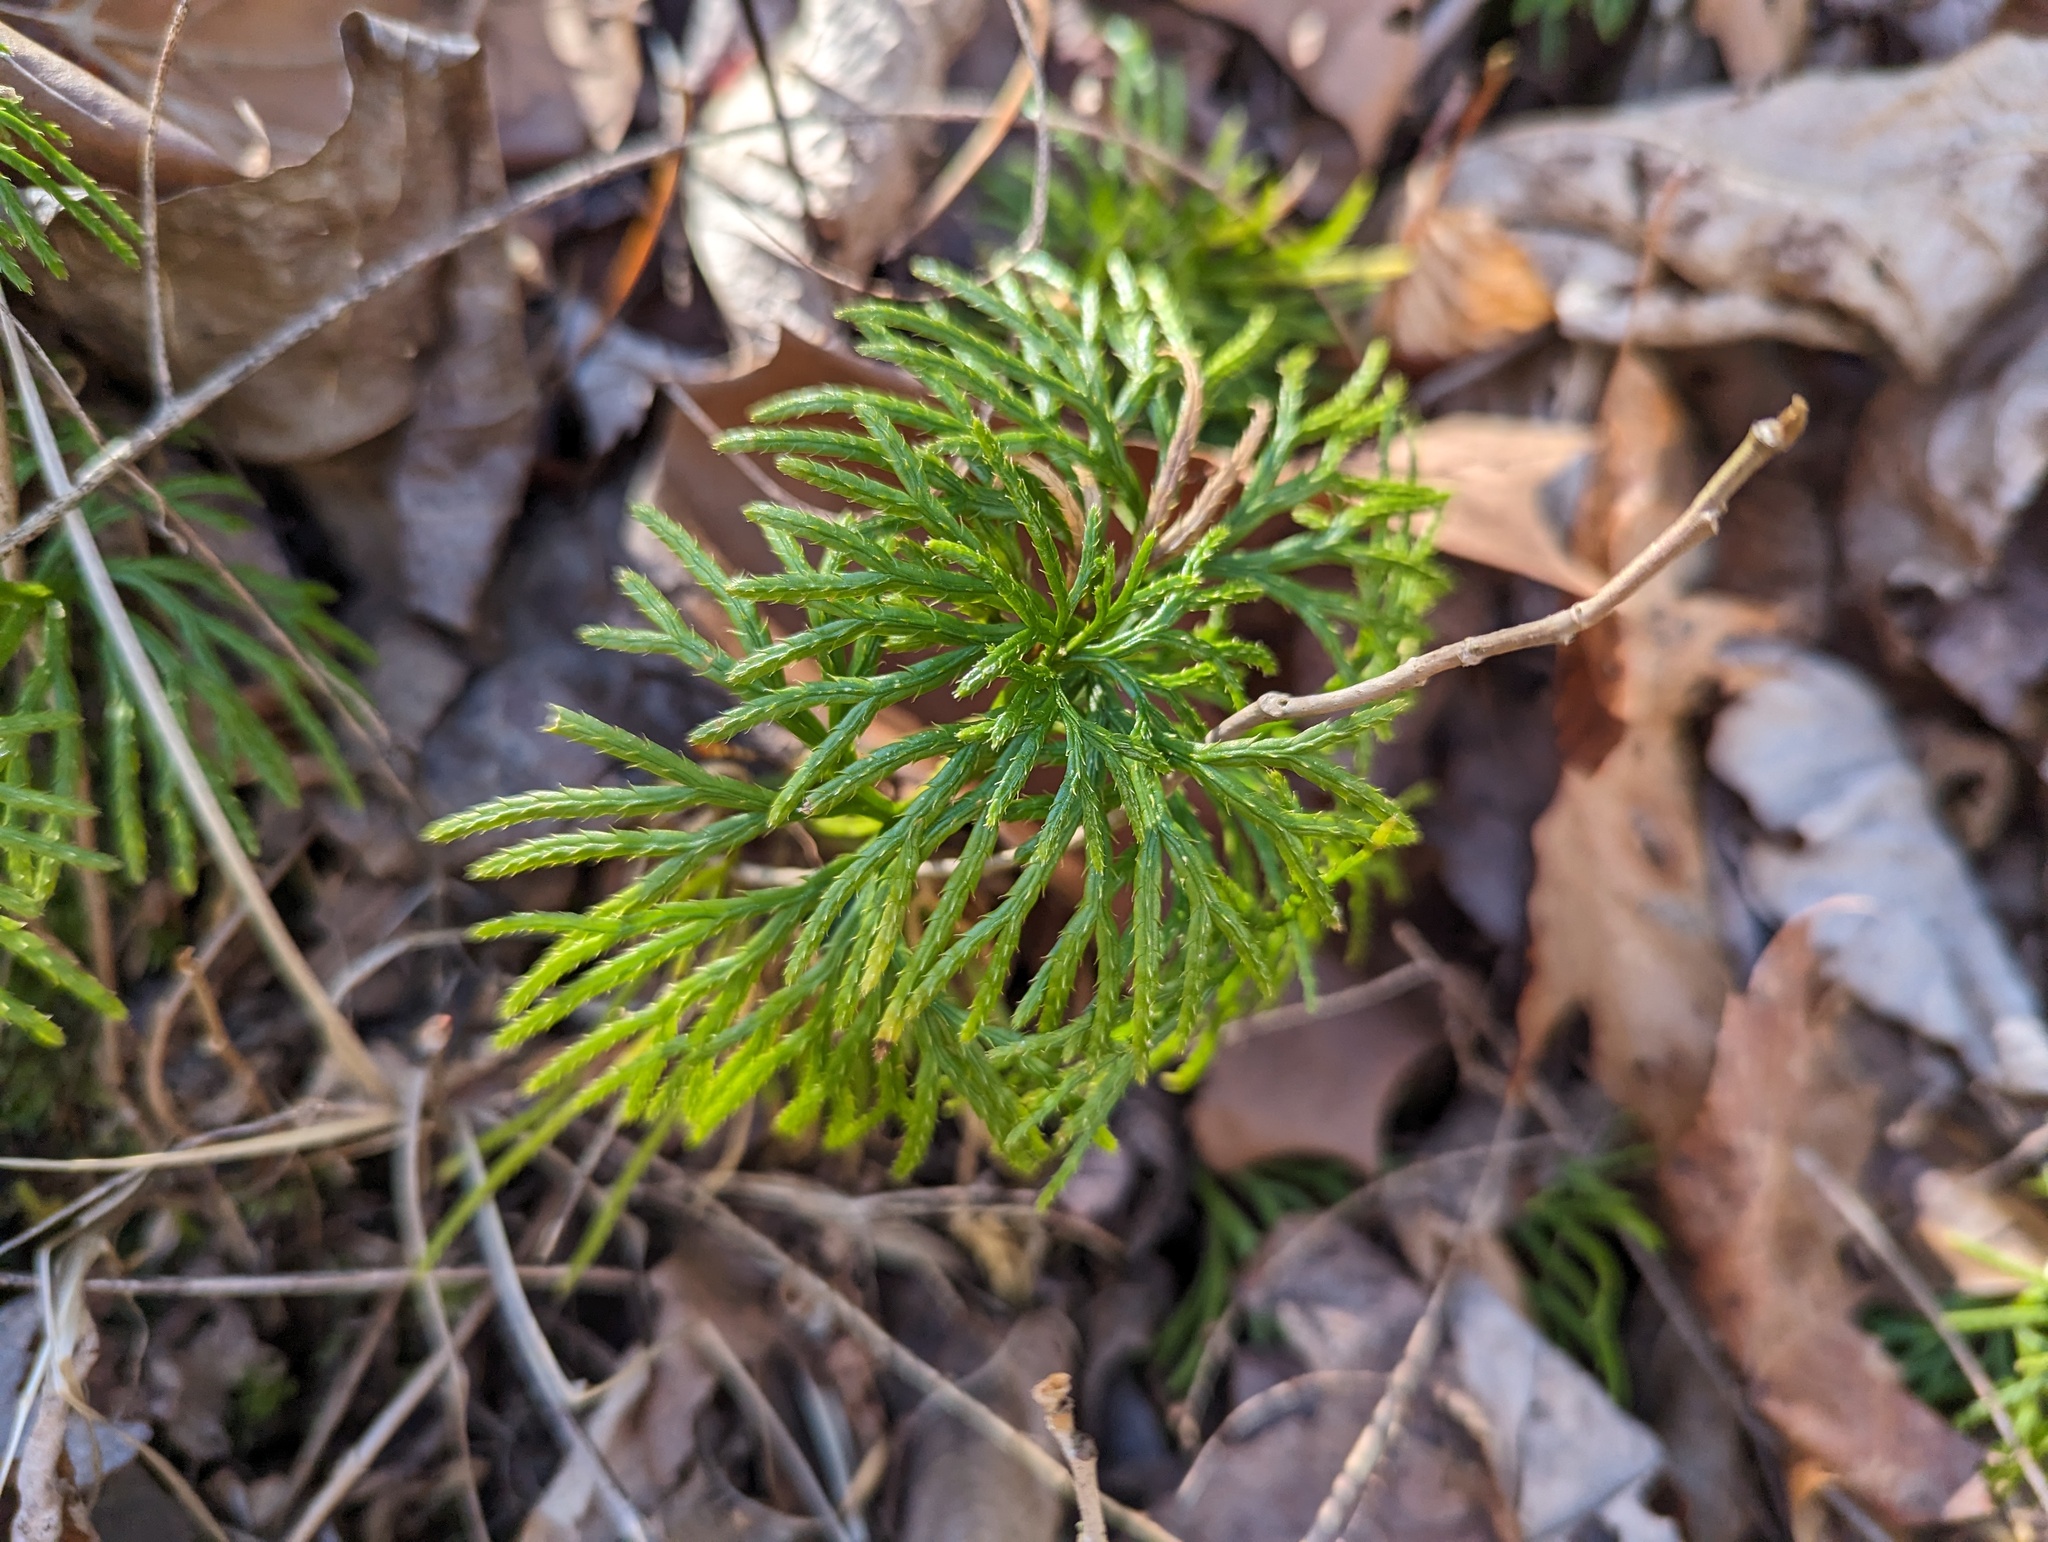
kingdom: Plantae
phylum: Tracheophyta
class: Lycopodiopsida
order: Lycopodiales
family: Lycopodiaceae
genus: Diphasiastrum
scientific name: Diphasiastrum digitatum
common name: Southern running-pine
